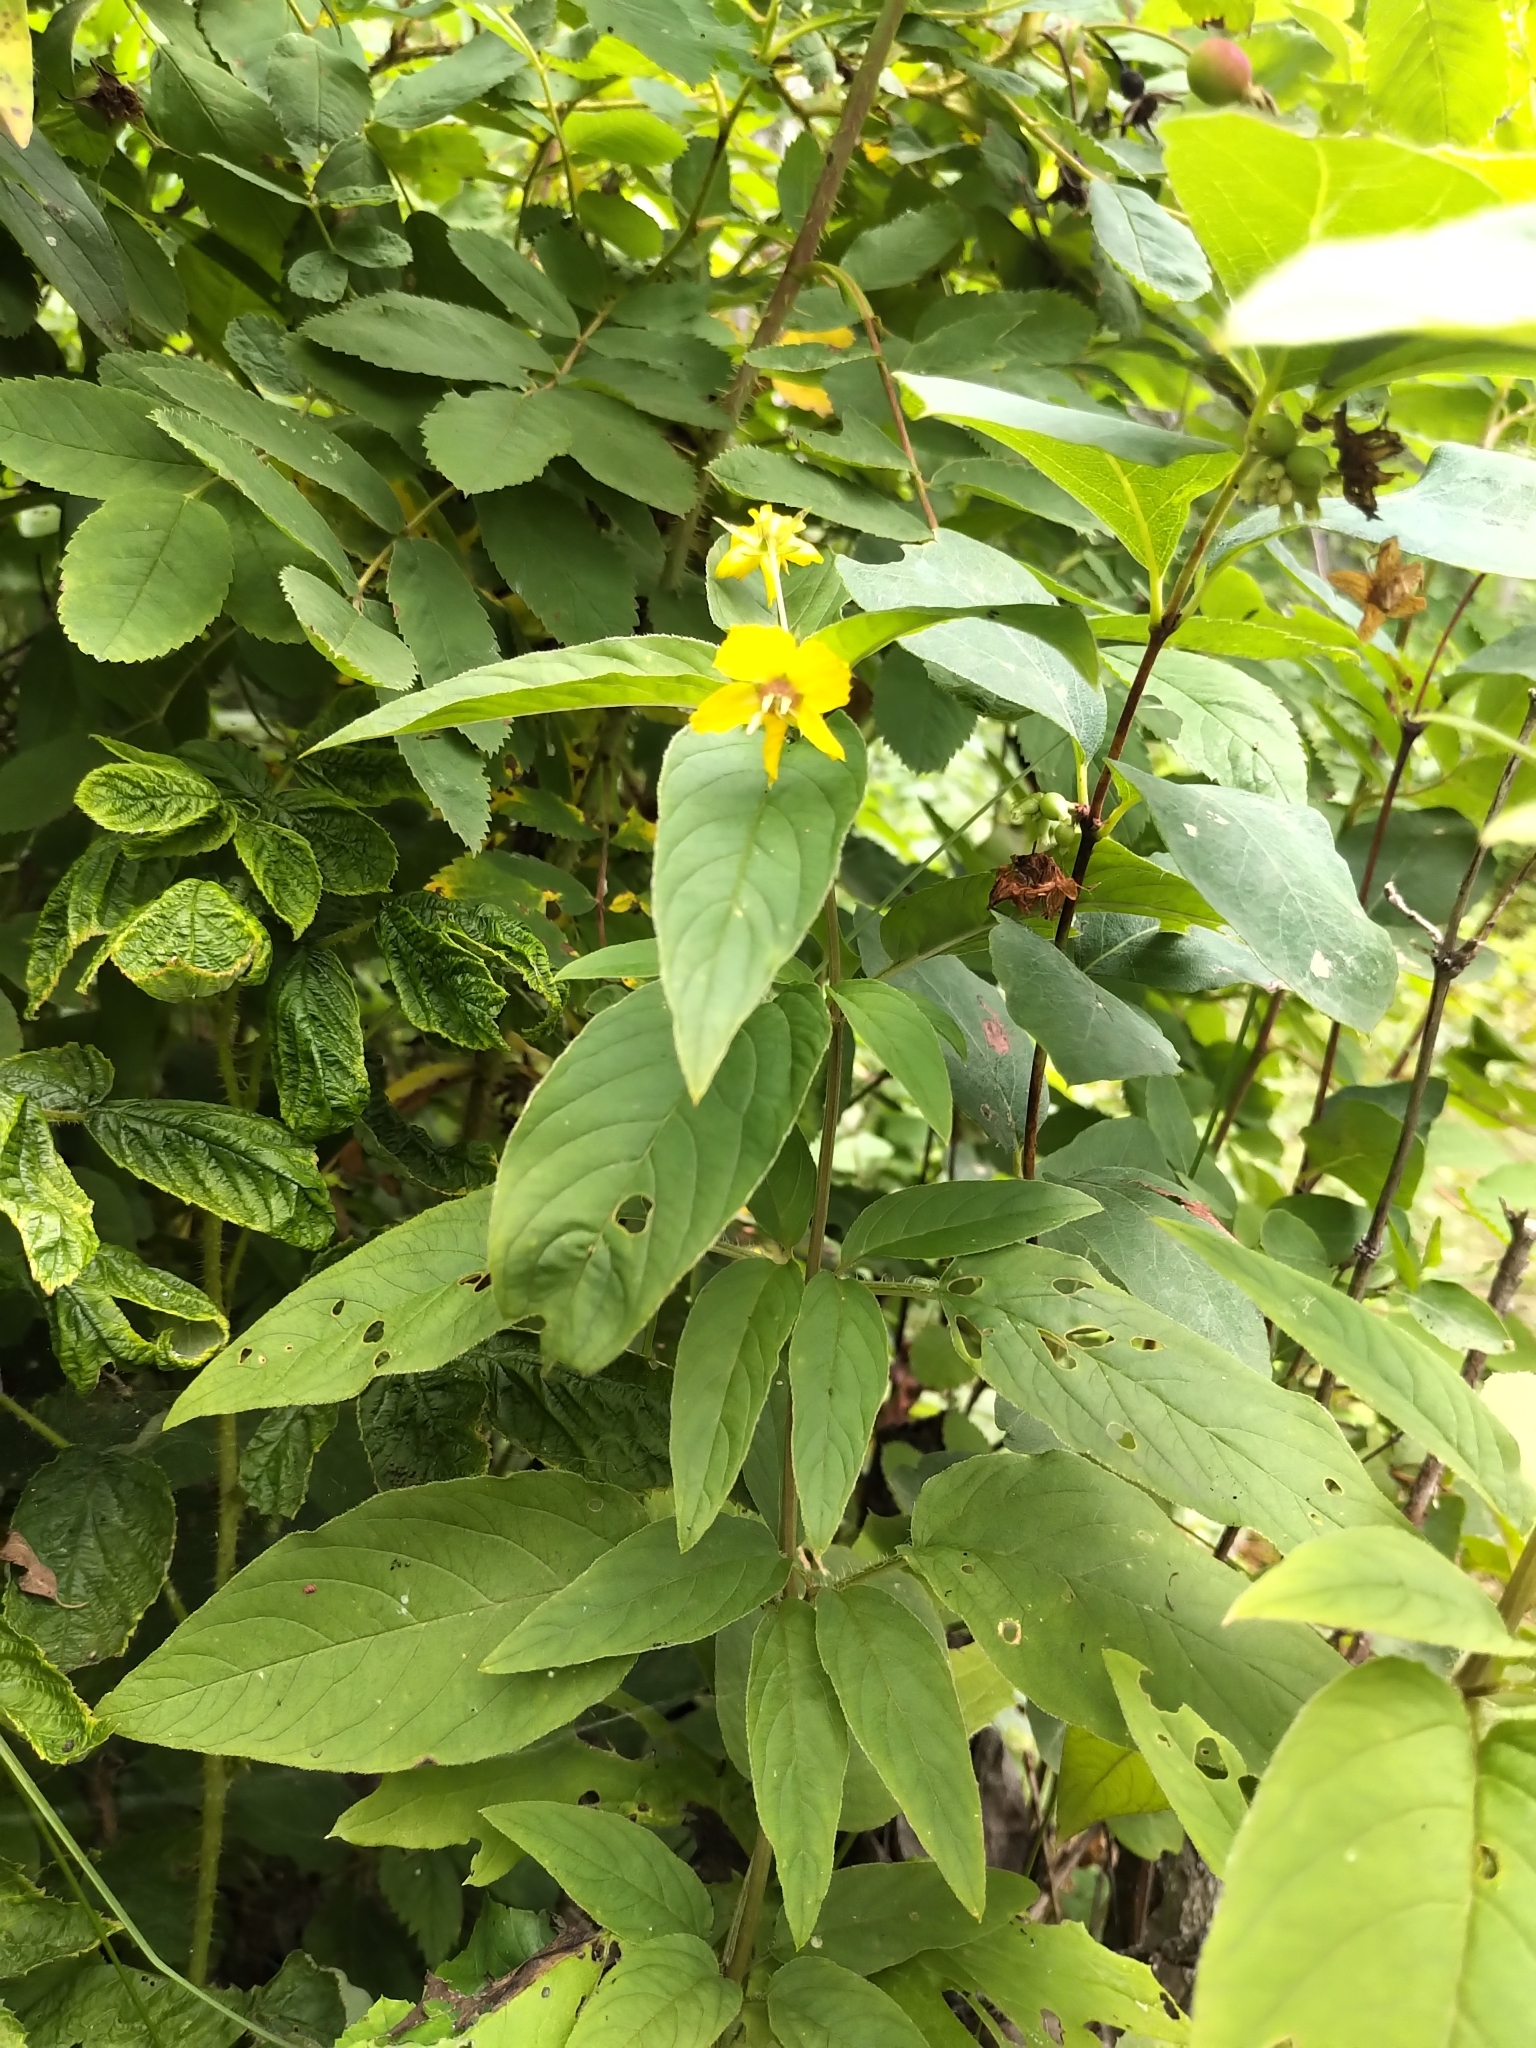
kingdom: Plantae
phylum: Tracheophyta
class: Magnoliopsida
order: Ericales
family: Primulaceae
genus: Lysimachia
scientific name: Lysimachia ciliata
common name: Fringed loosestrife
